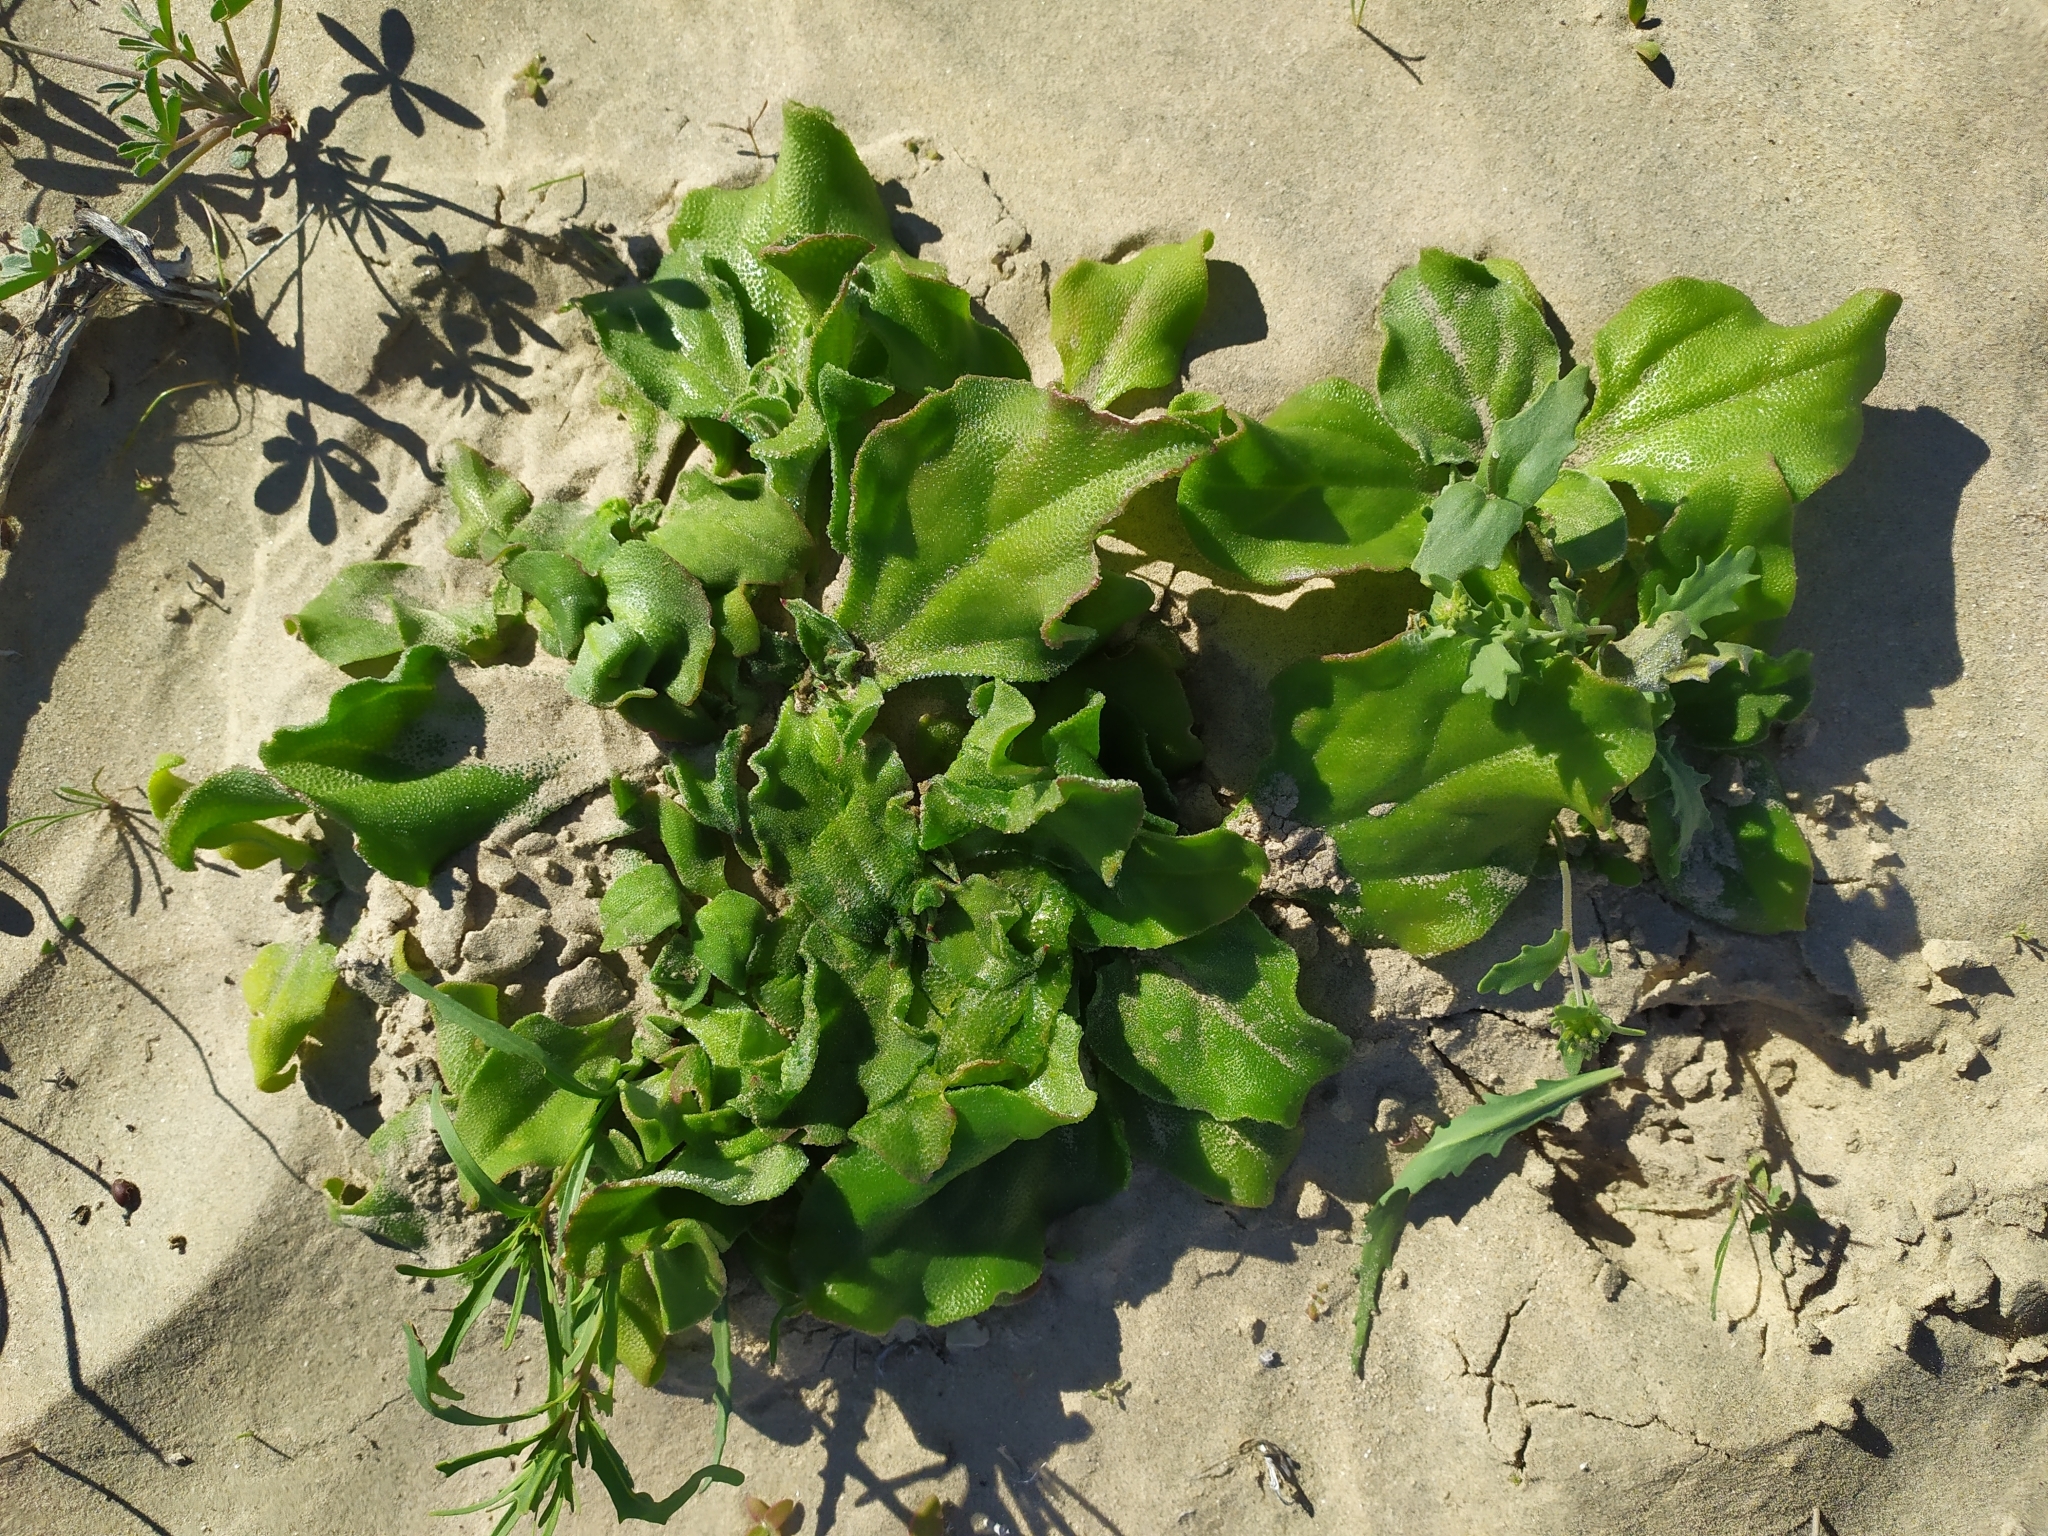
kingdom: Plantae
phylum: Tracheophyta
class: Magnoliopsida
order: Caryophyllales
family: Aizoaceae
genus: Mesembryanthemum
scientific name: Mesembryanthemum crystallinum
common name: Common iceplant
